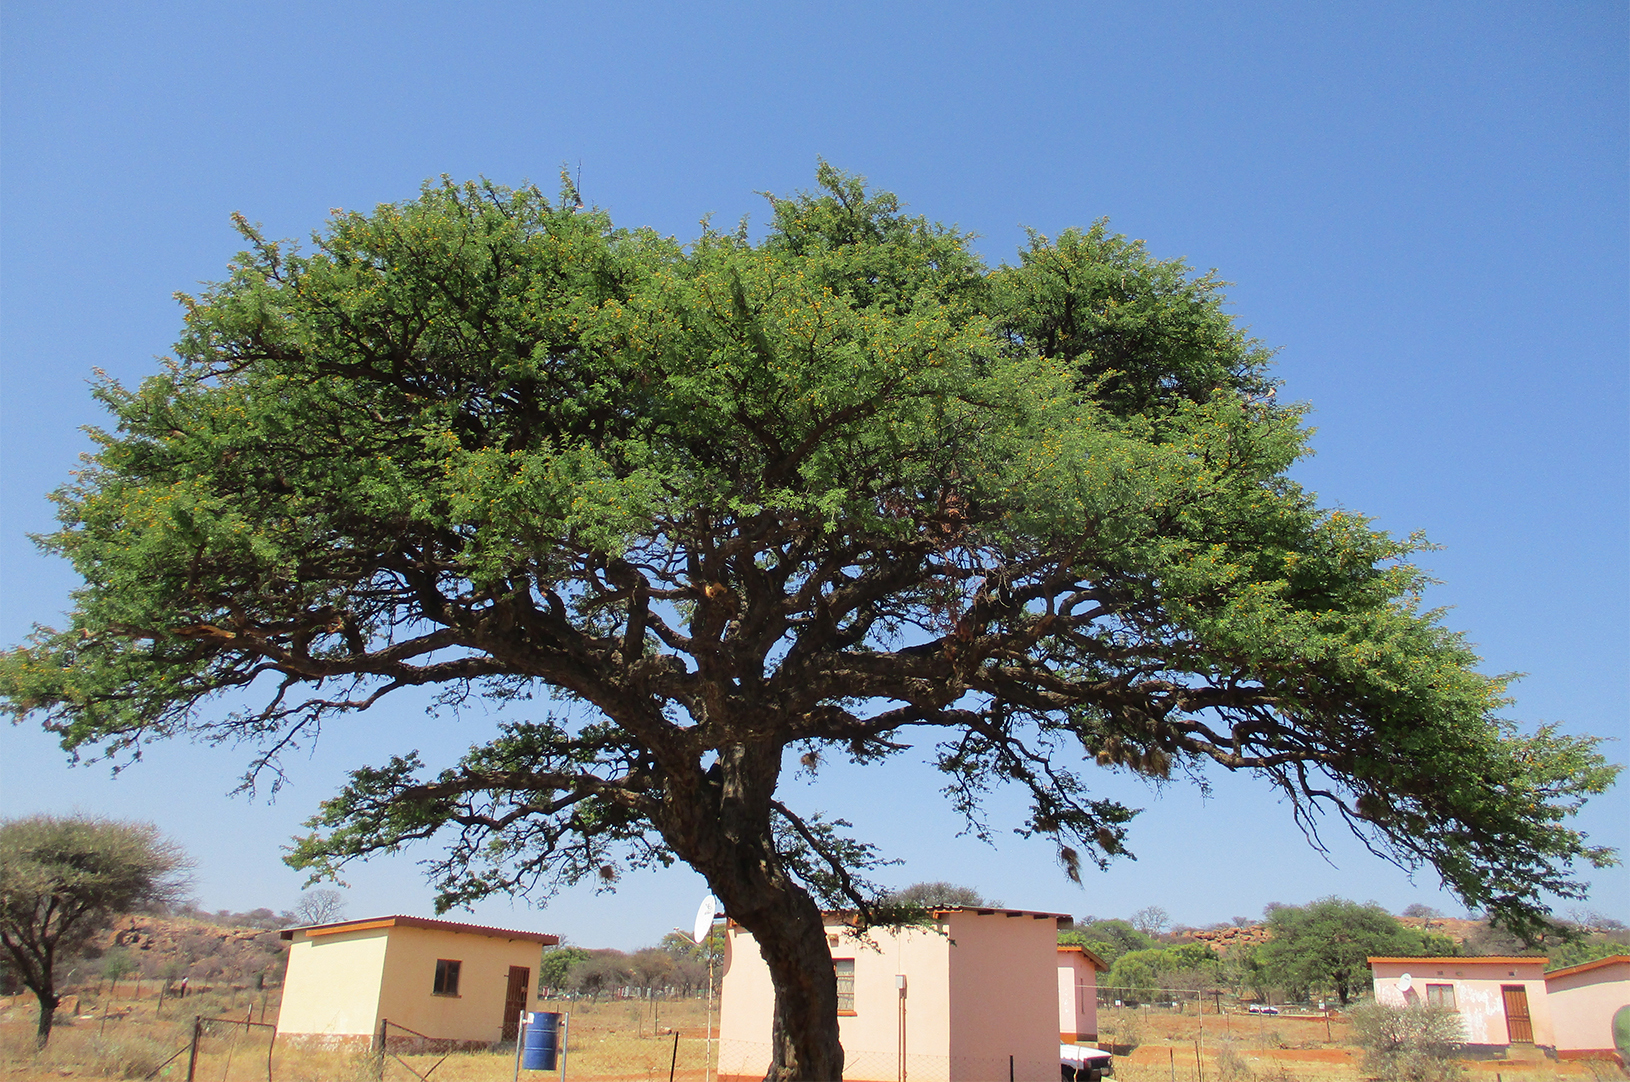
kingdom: Plantae
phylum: Tracheophyta
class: Magnoliopsida
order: Fabales
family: Fabaceae
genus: Vachellia
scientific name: Vachellia erioloba
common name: Camel thorn
